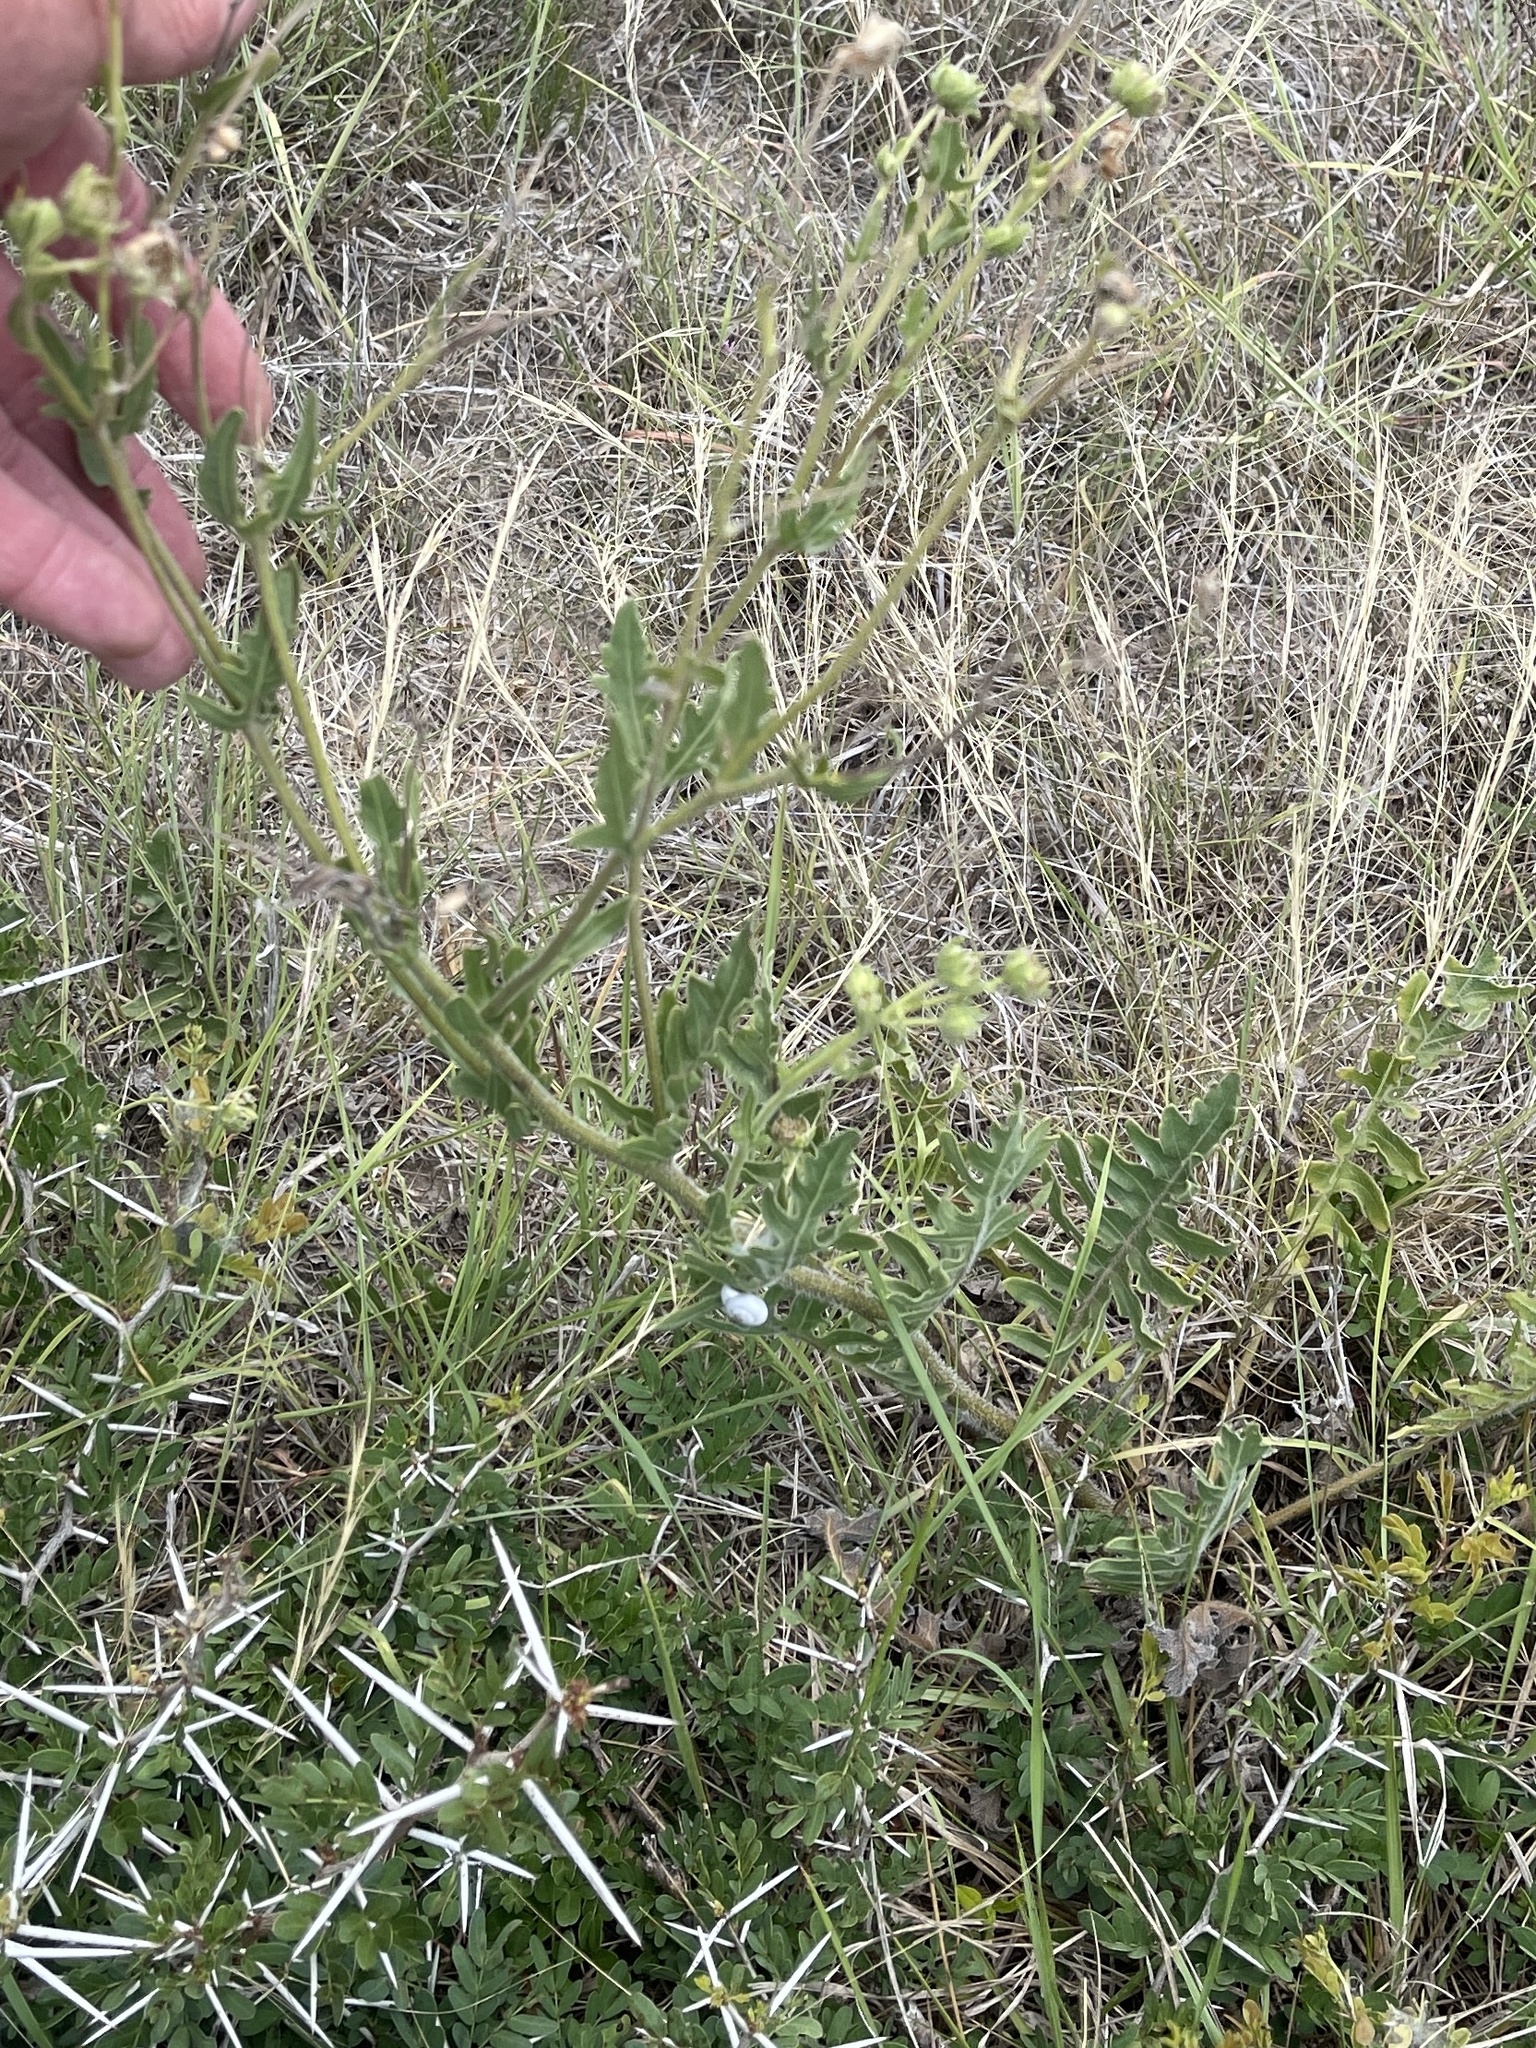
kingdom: Plantae
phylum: Tracheophyta
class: Magnoliopsida
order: Asterales
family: Asteraceae
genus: Engelmannia
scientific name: Engelmannia peristenia
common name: Engelmann's daisy
